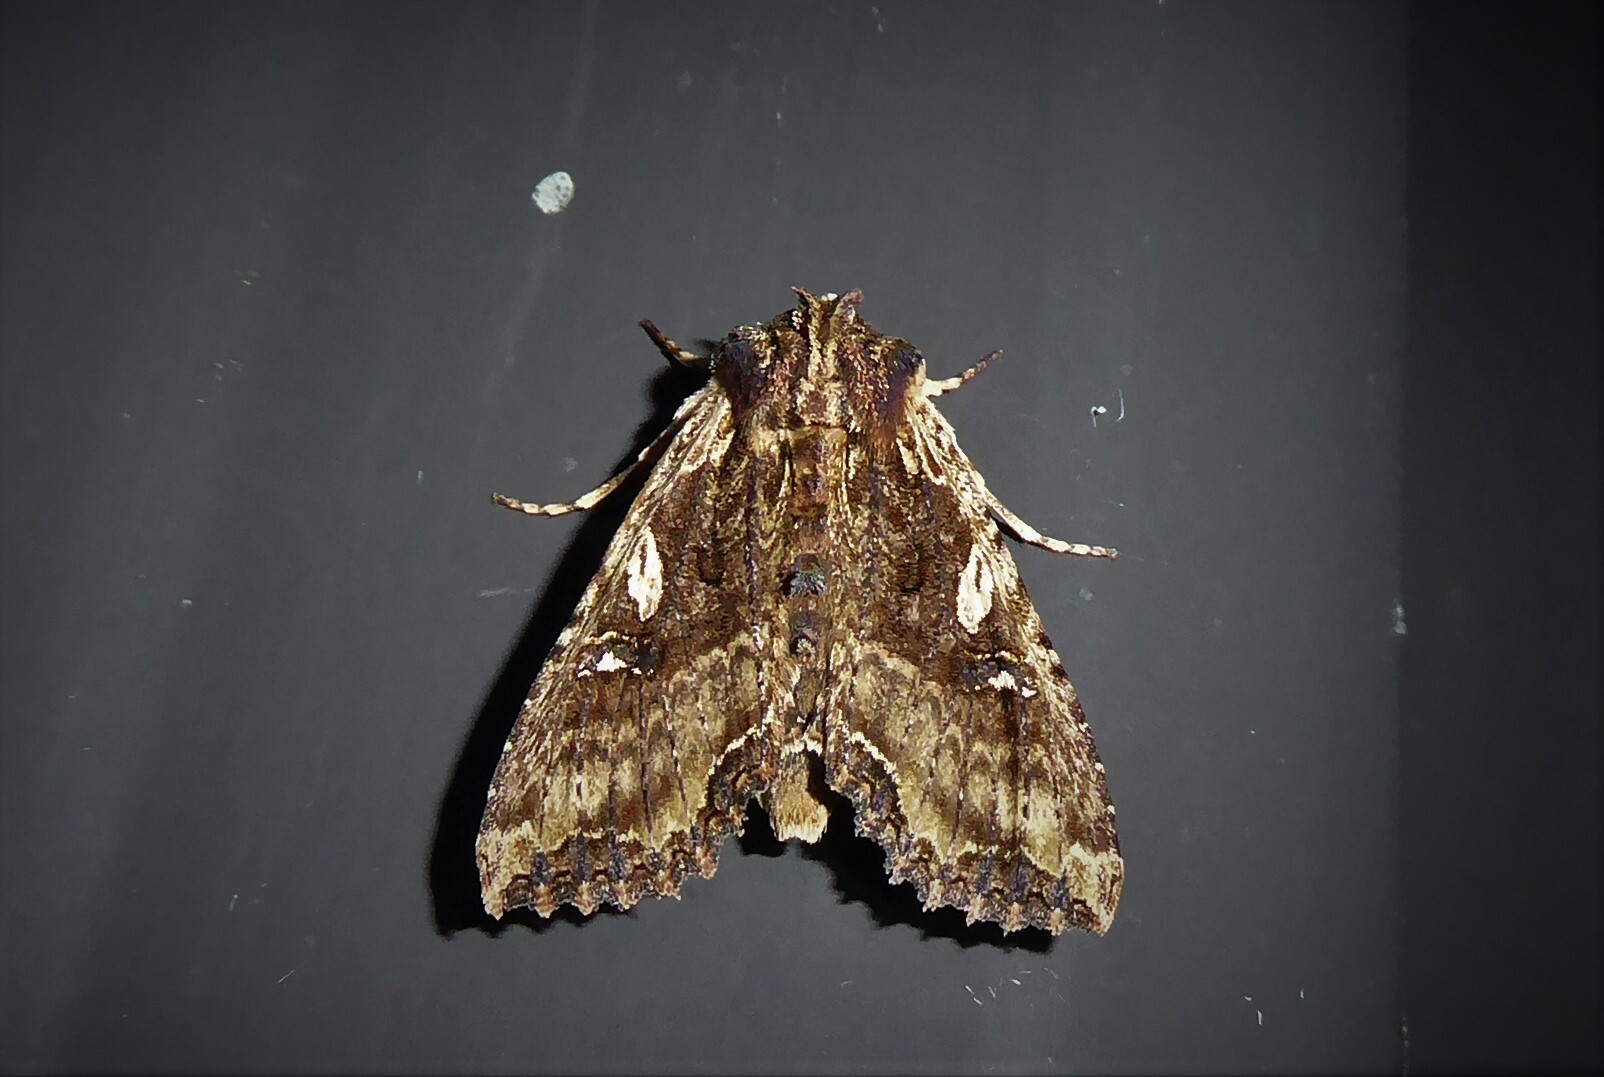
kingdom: Animalia
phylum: Arthropoda
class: Insecta
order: Lepidoptera
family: Noctuidae
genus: Meterana
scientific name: Meterana stipata
